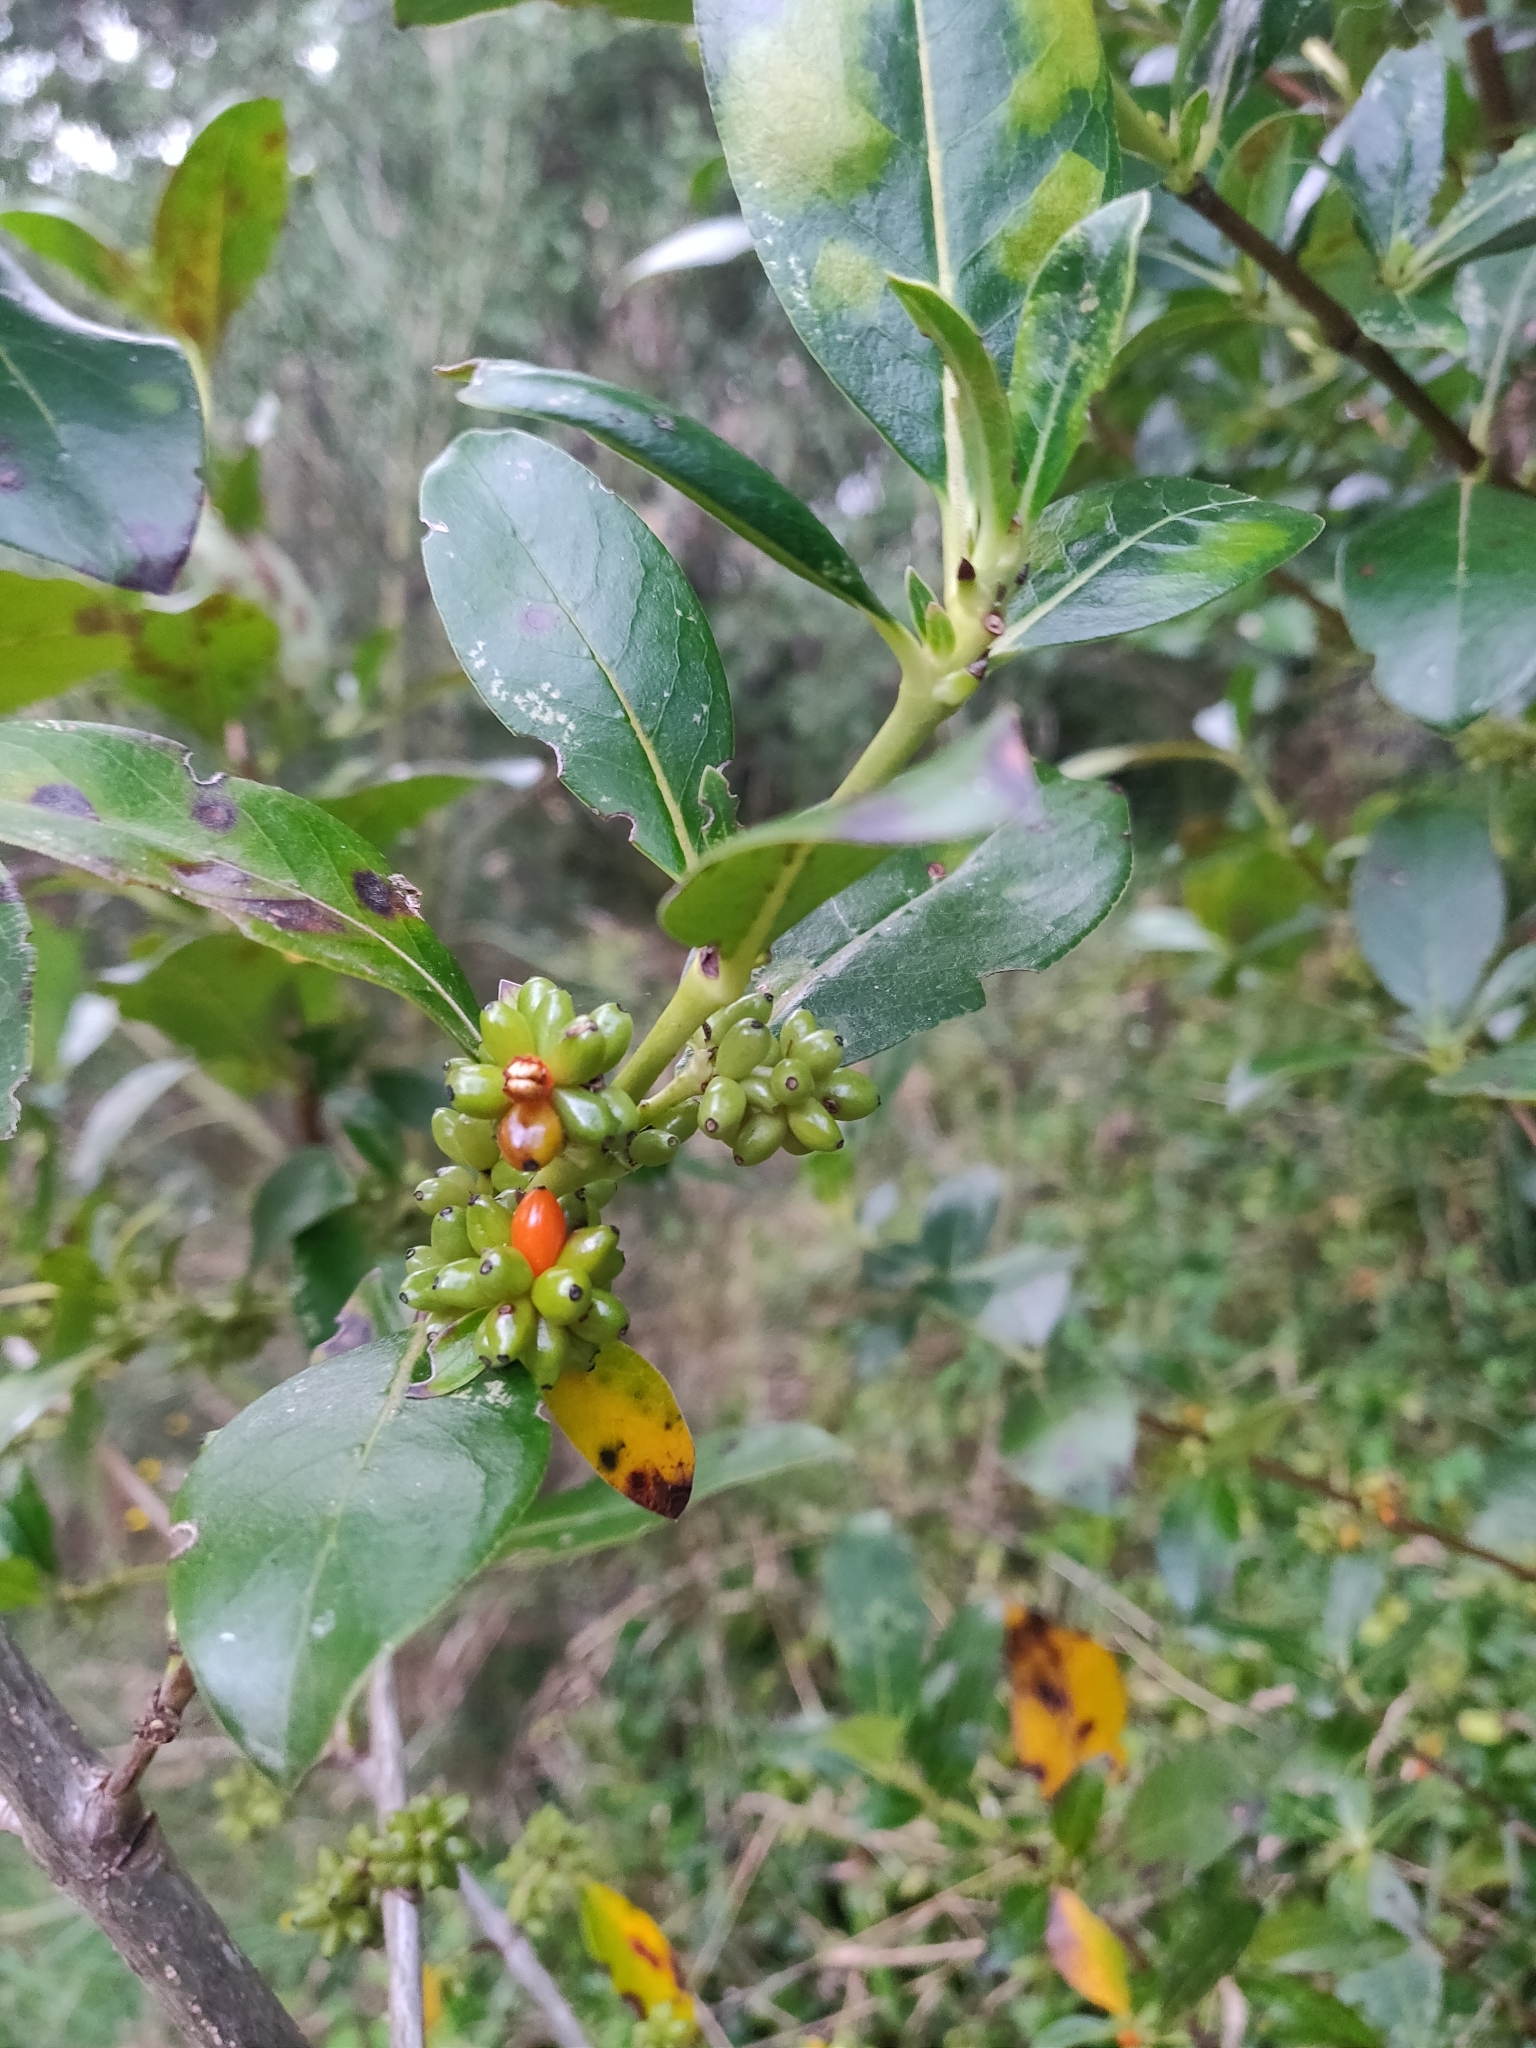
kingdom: Plantae
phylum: Tracheophyta
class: Magnoliopsida
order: Gentianales
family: Rubiaceae
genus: Coprosma
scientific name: Coprosma robusta
